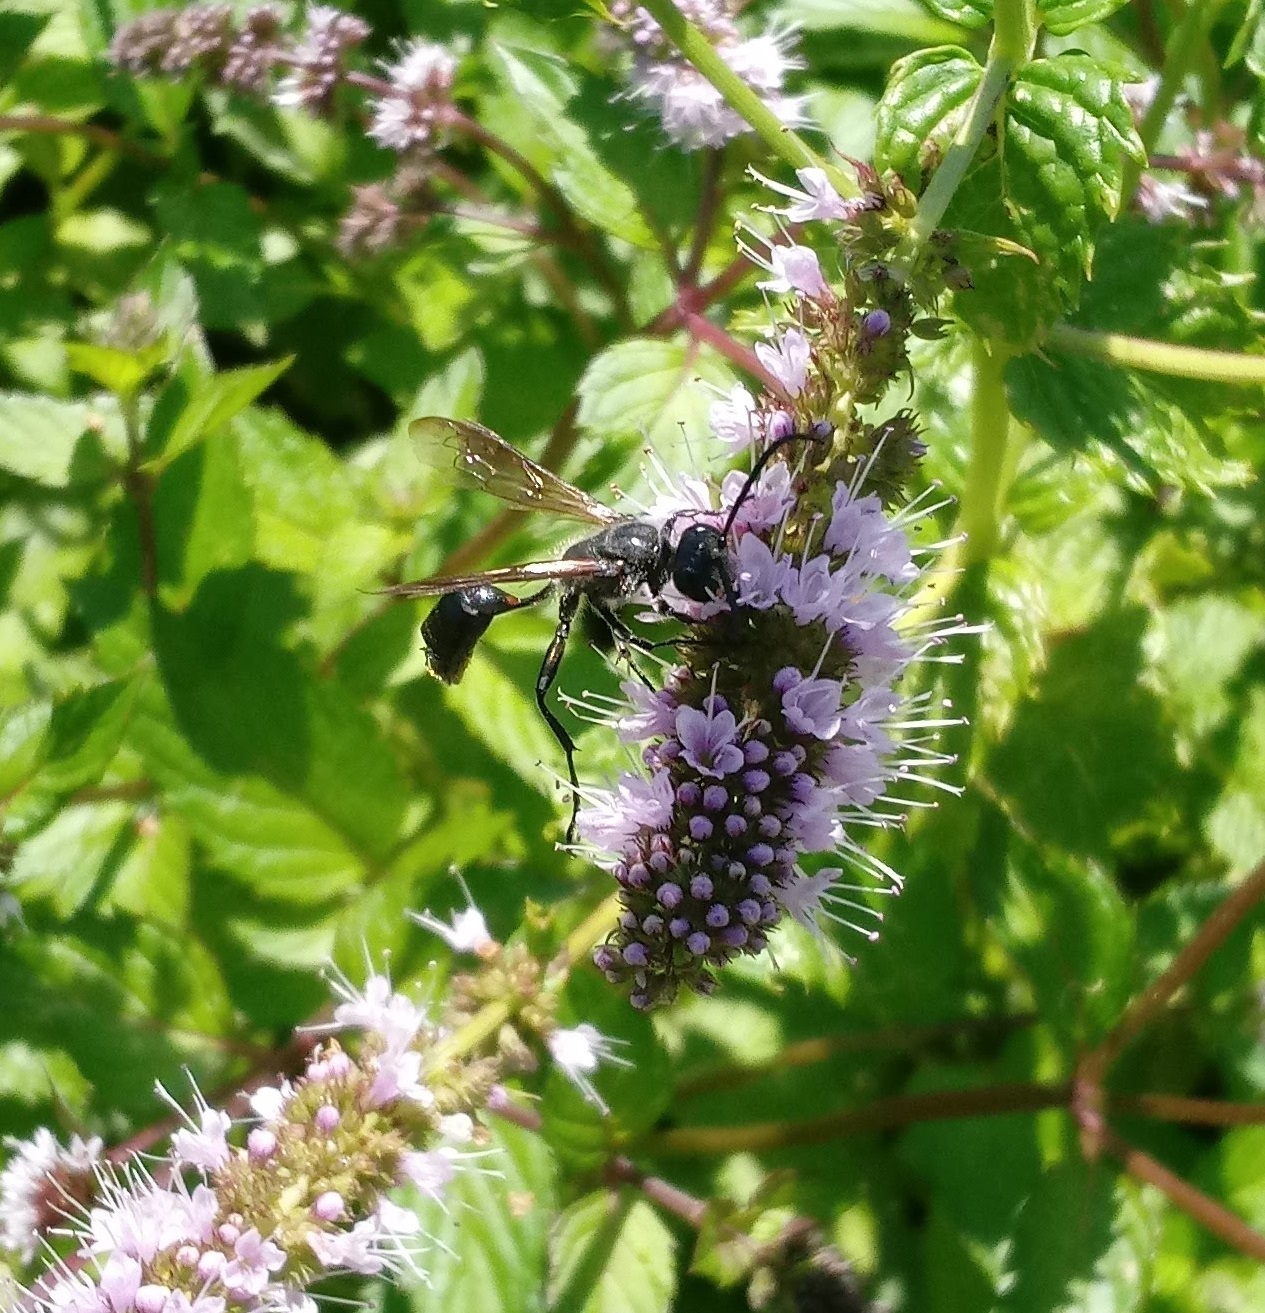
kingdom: Animalia
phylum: Arthropoda
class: Insecta
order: Hymenoptera
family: Sphecidae
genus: Isodontia
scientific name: Isodontia mexicana
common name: Mud dauber
